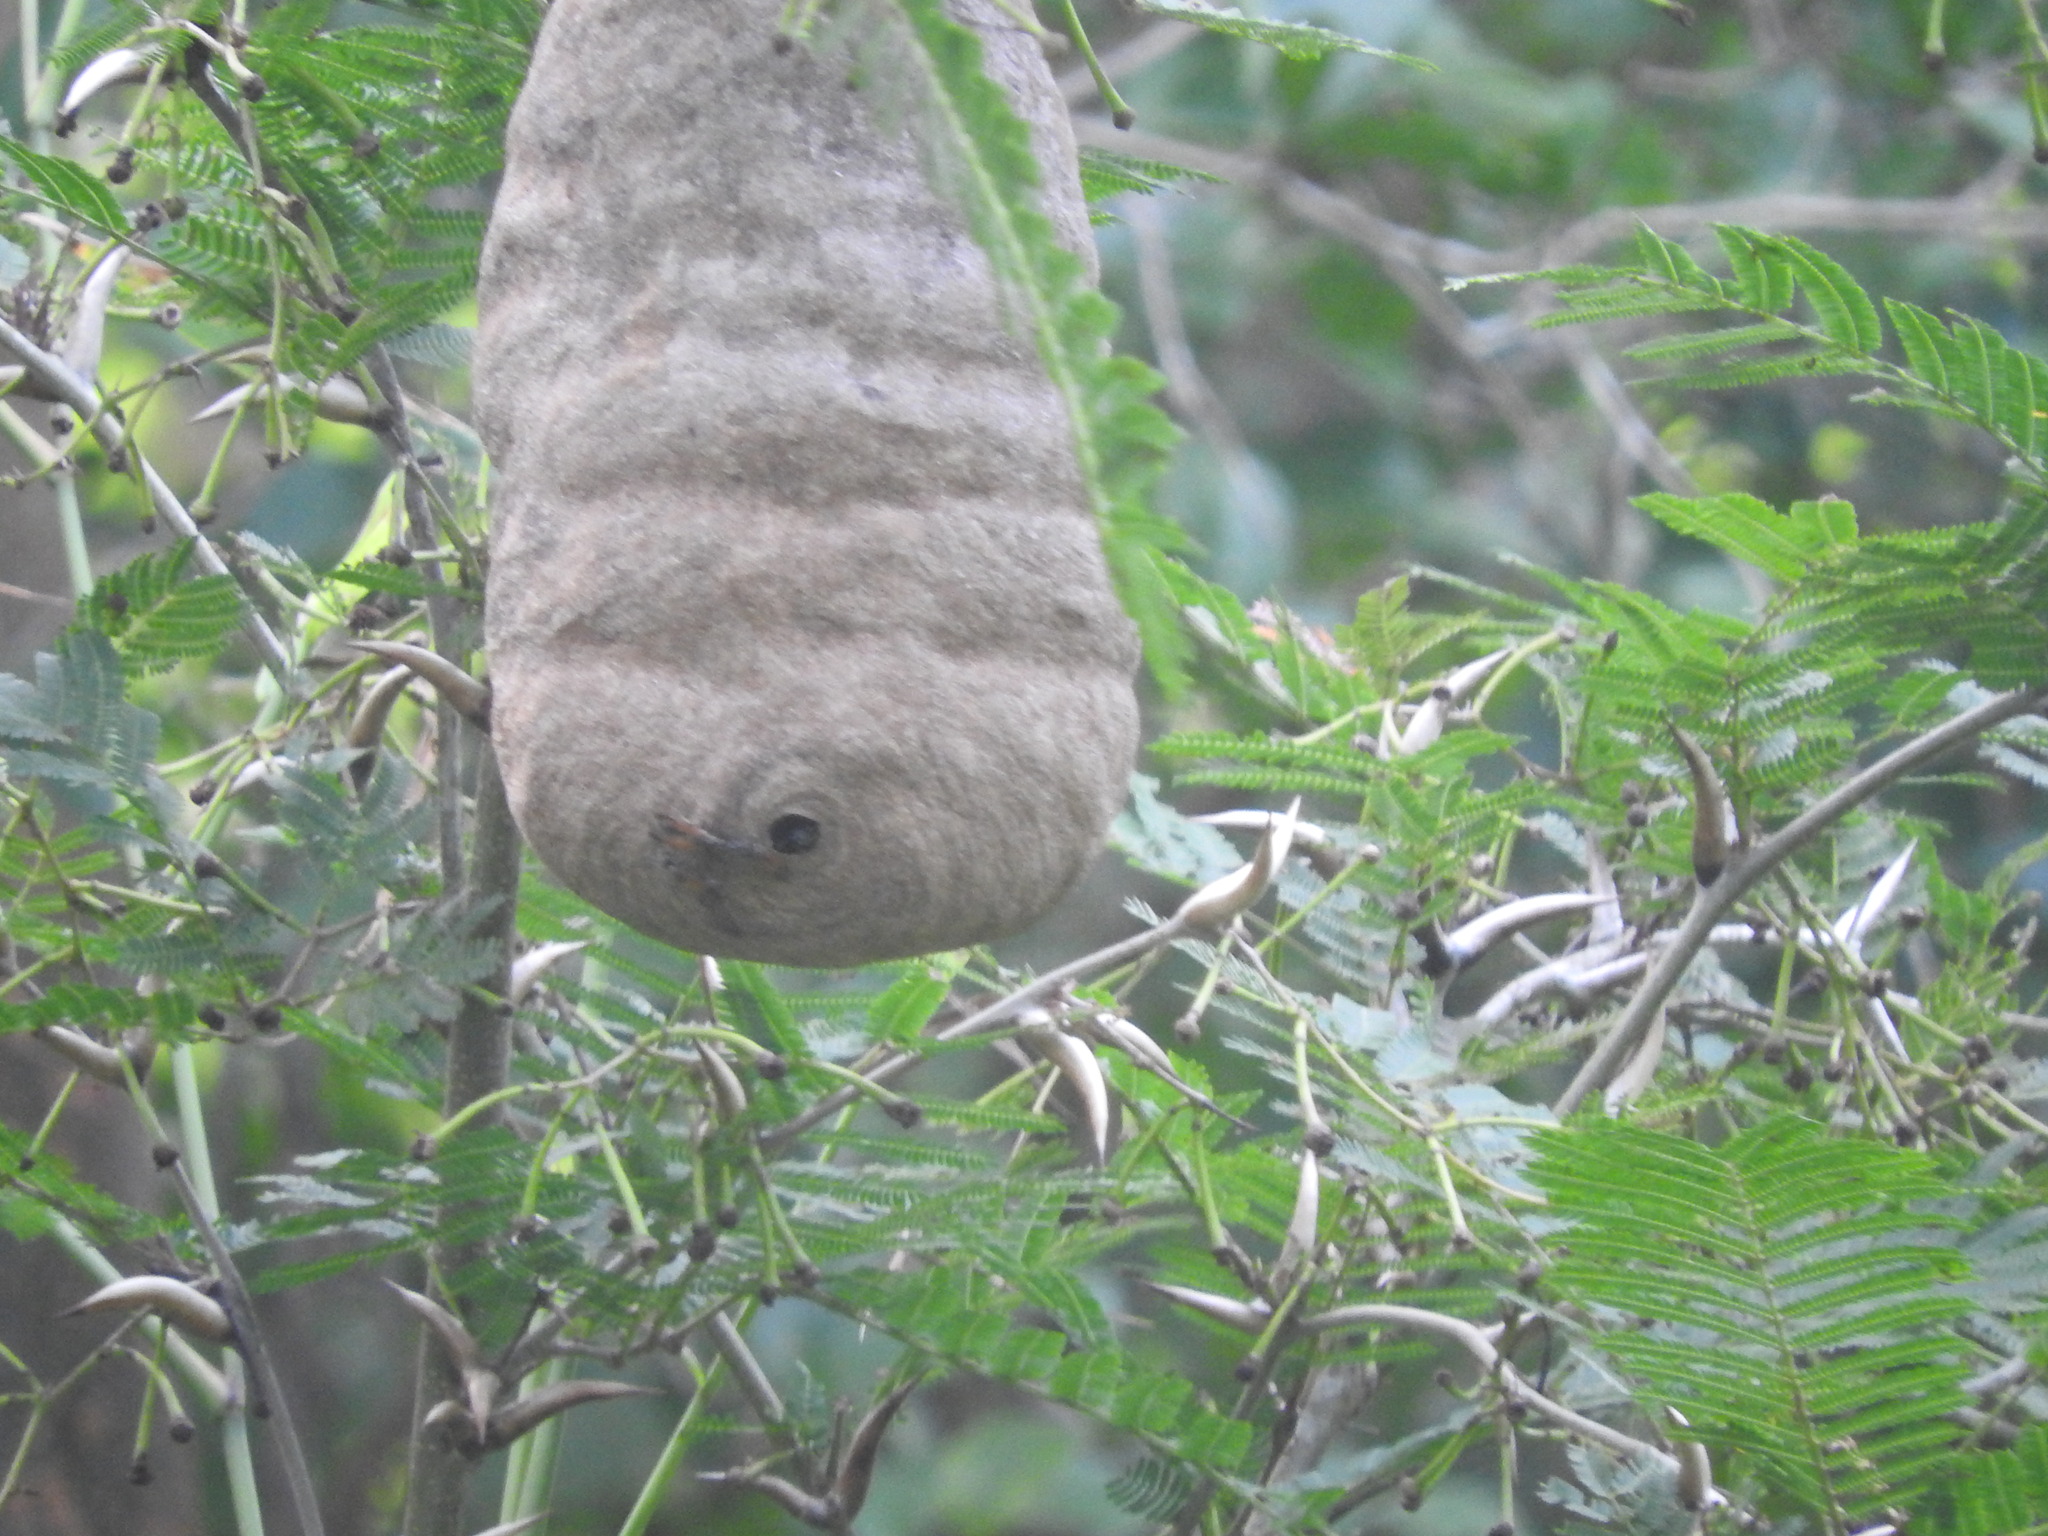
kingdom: Animalia
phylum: Arthropoda
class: Insecta
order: Hymenoptera
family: Eumenidae
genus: Polybia
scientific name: Polybia rejecta
